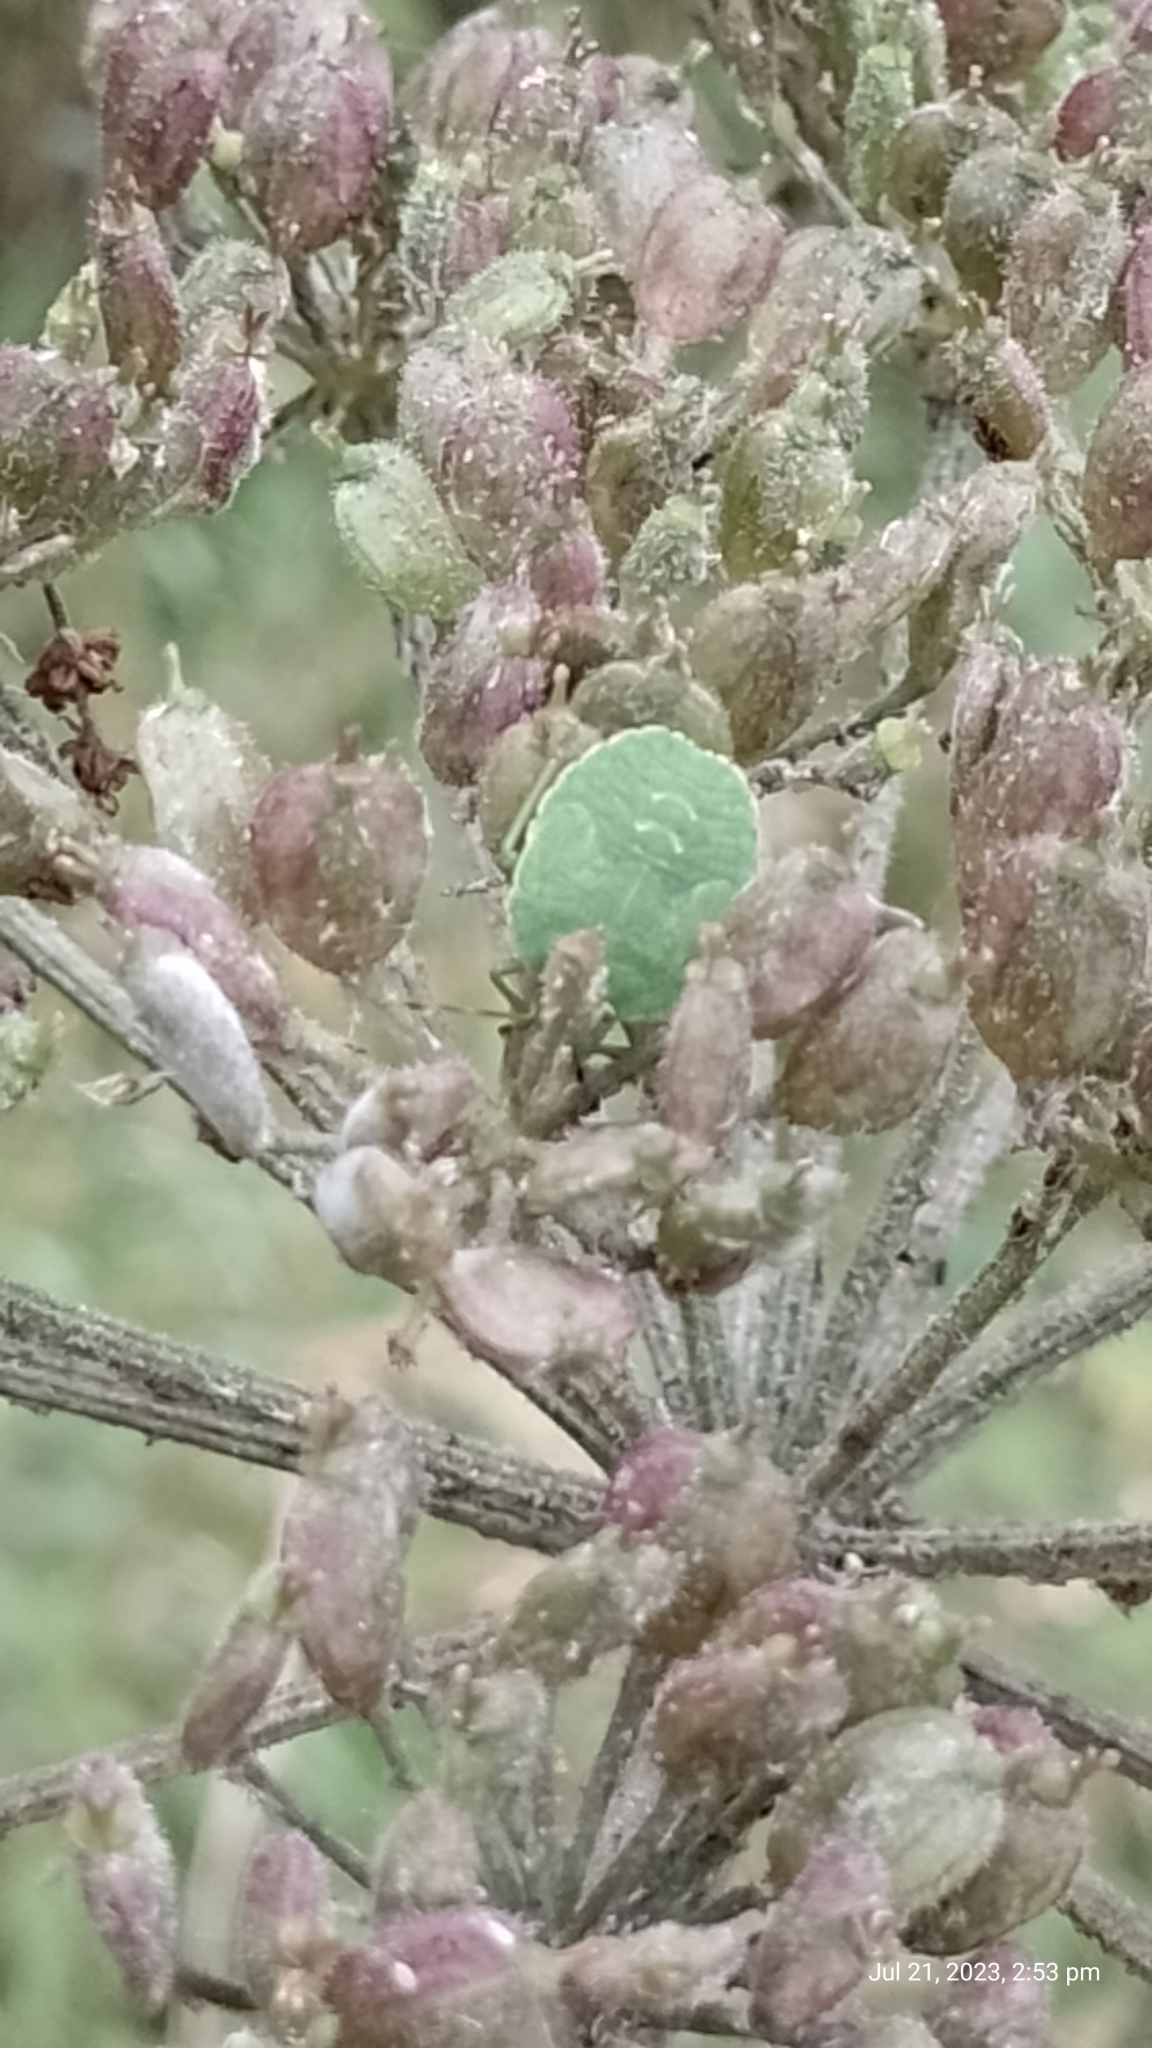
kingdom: Animalia
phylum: Arthropoda
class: Insecta
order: Hemiptera
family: Pentatomidae
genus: Palomena
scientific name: Palomena prasina
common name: Green shieldbug
